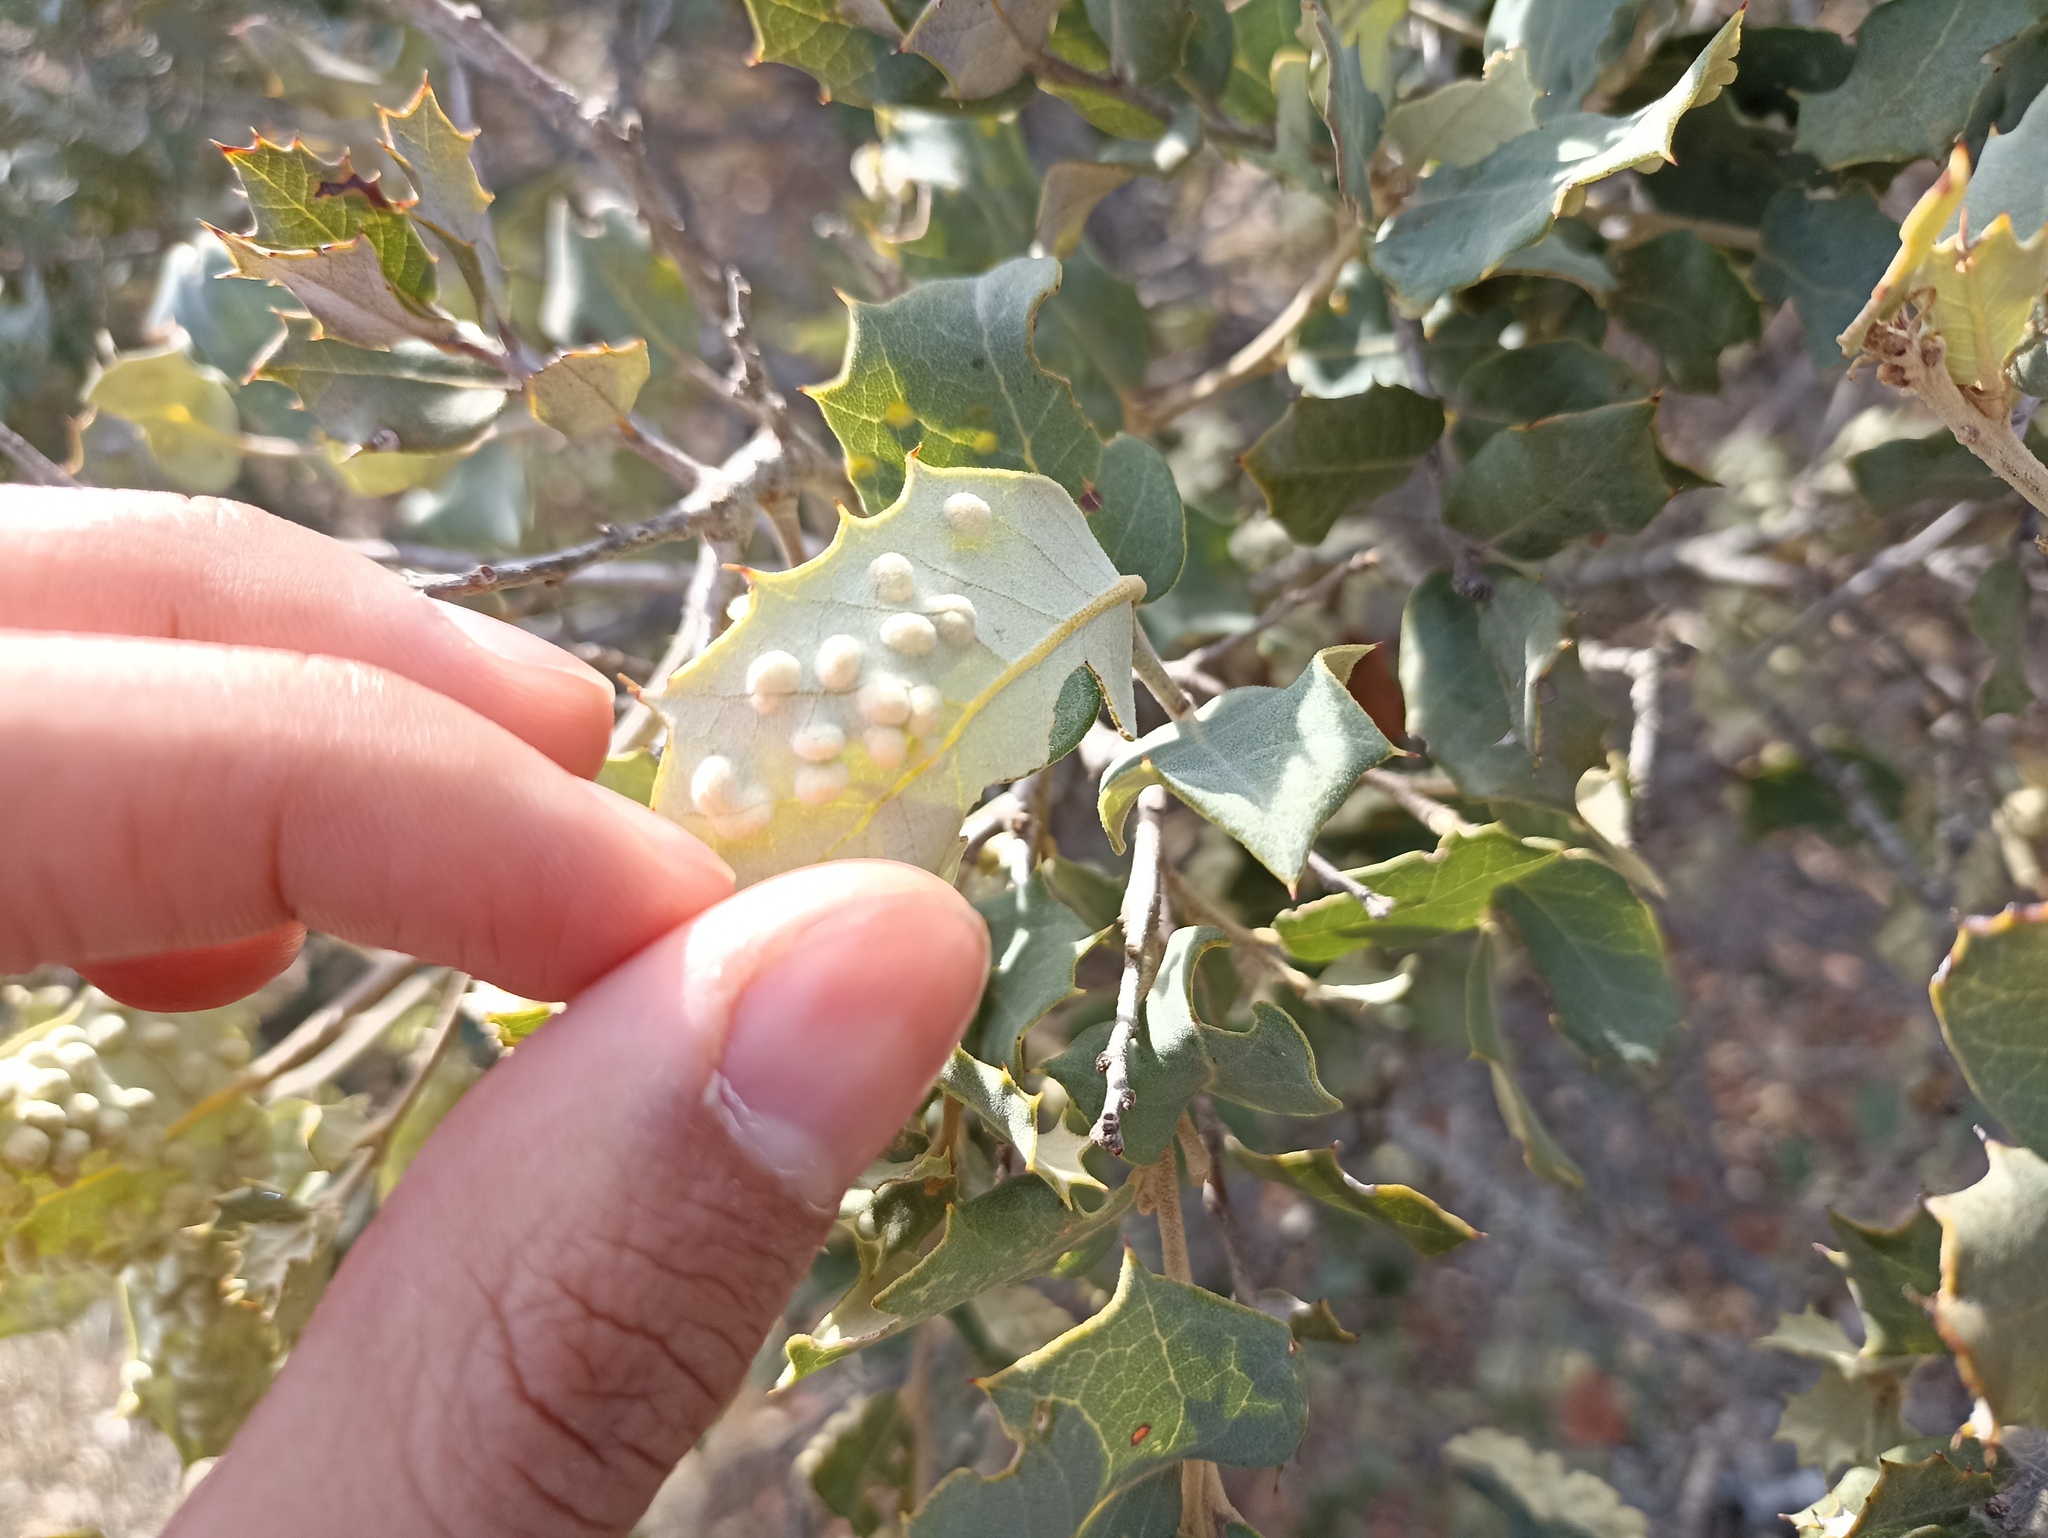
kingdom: Animalia
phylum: Arthropoda
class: Insecta
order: Diptera
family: Cecidomyiidae
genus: Dryomyia
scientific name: Dryomyia lichtensteinii
